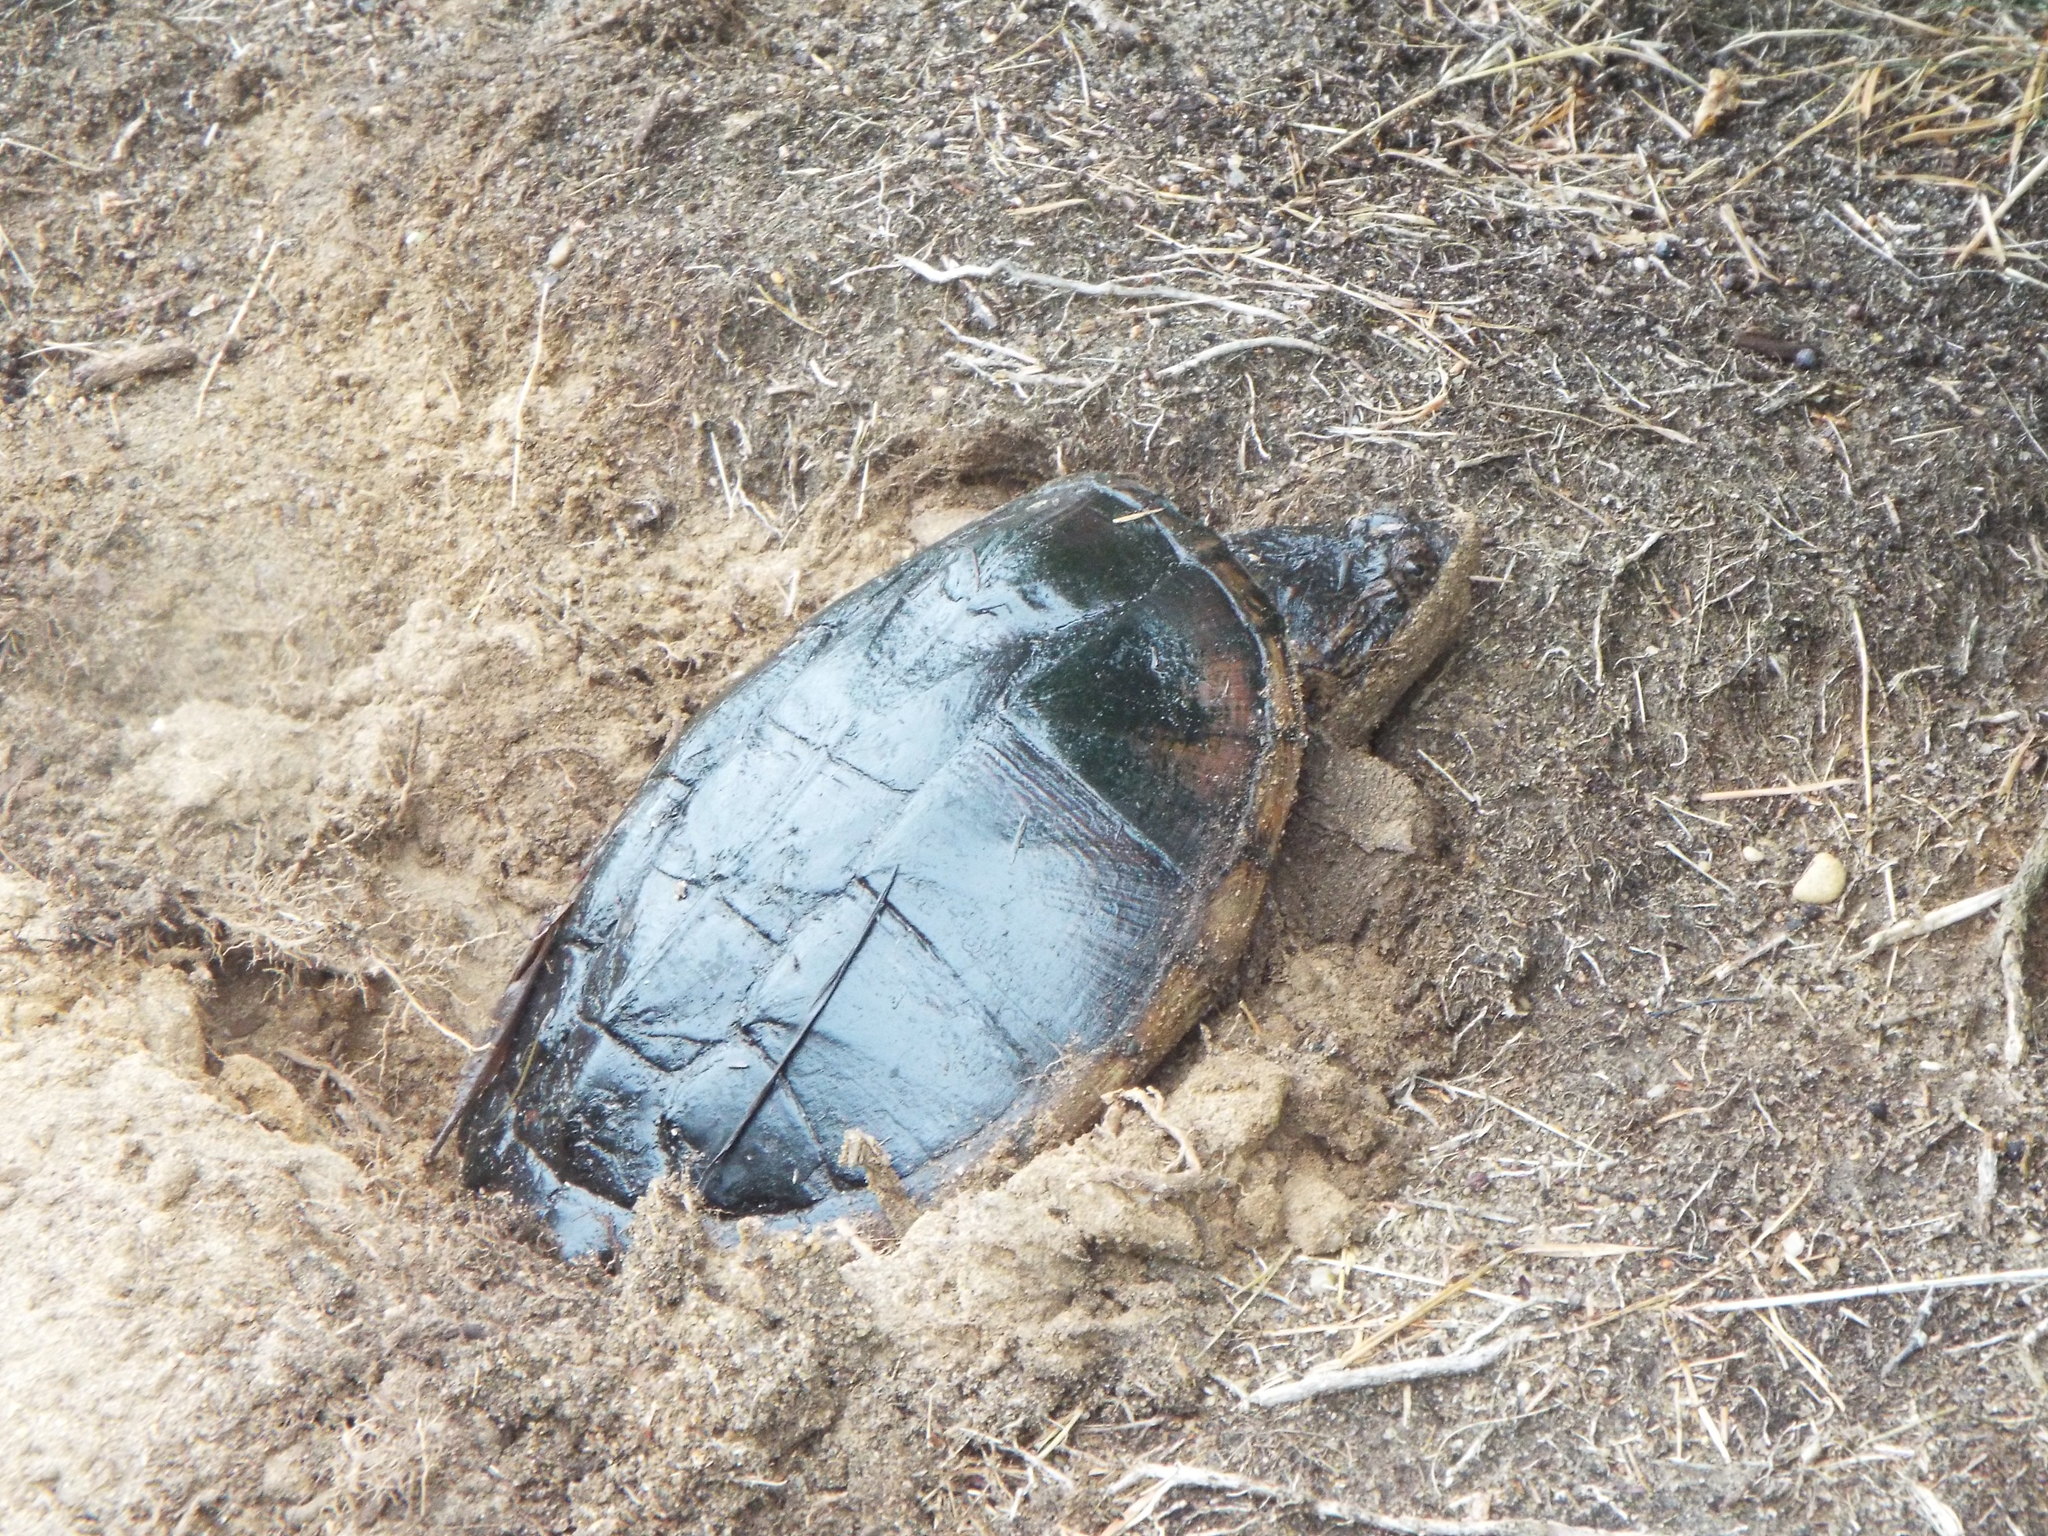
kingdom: Animalia
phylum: Chordata
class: Testudines
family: Chelydridae
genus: Chelydra
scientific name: Chelydra serpentina
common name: Common snapping turtle
